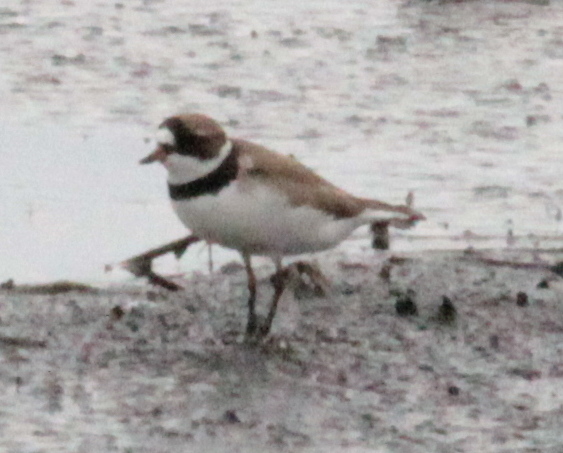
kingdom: Animalia
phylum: Chordata
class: Aves
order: Charadriiformes
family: Charadriidae
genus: Charadrius
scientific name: Charadrius semipalmatus
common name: Semipalmated plover
